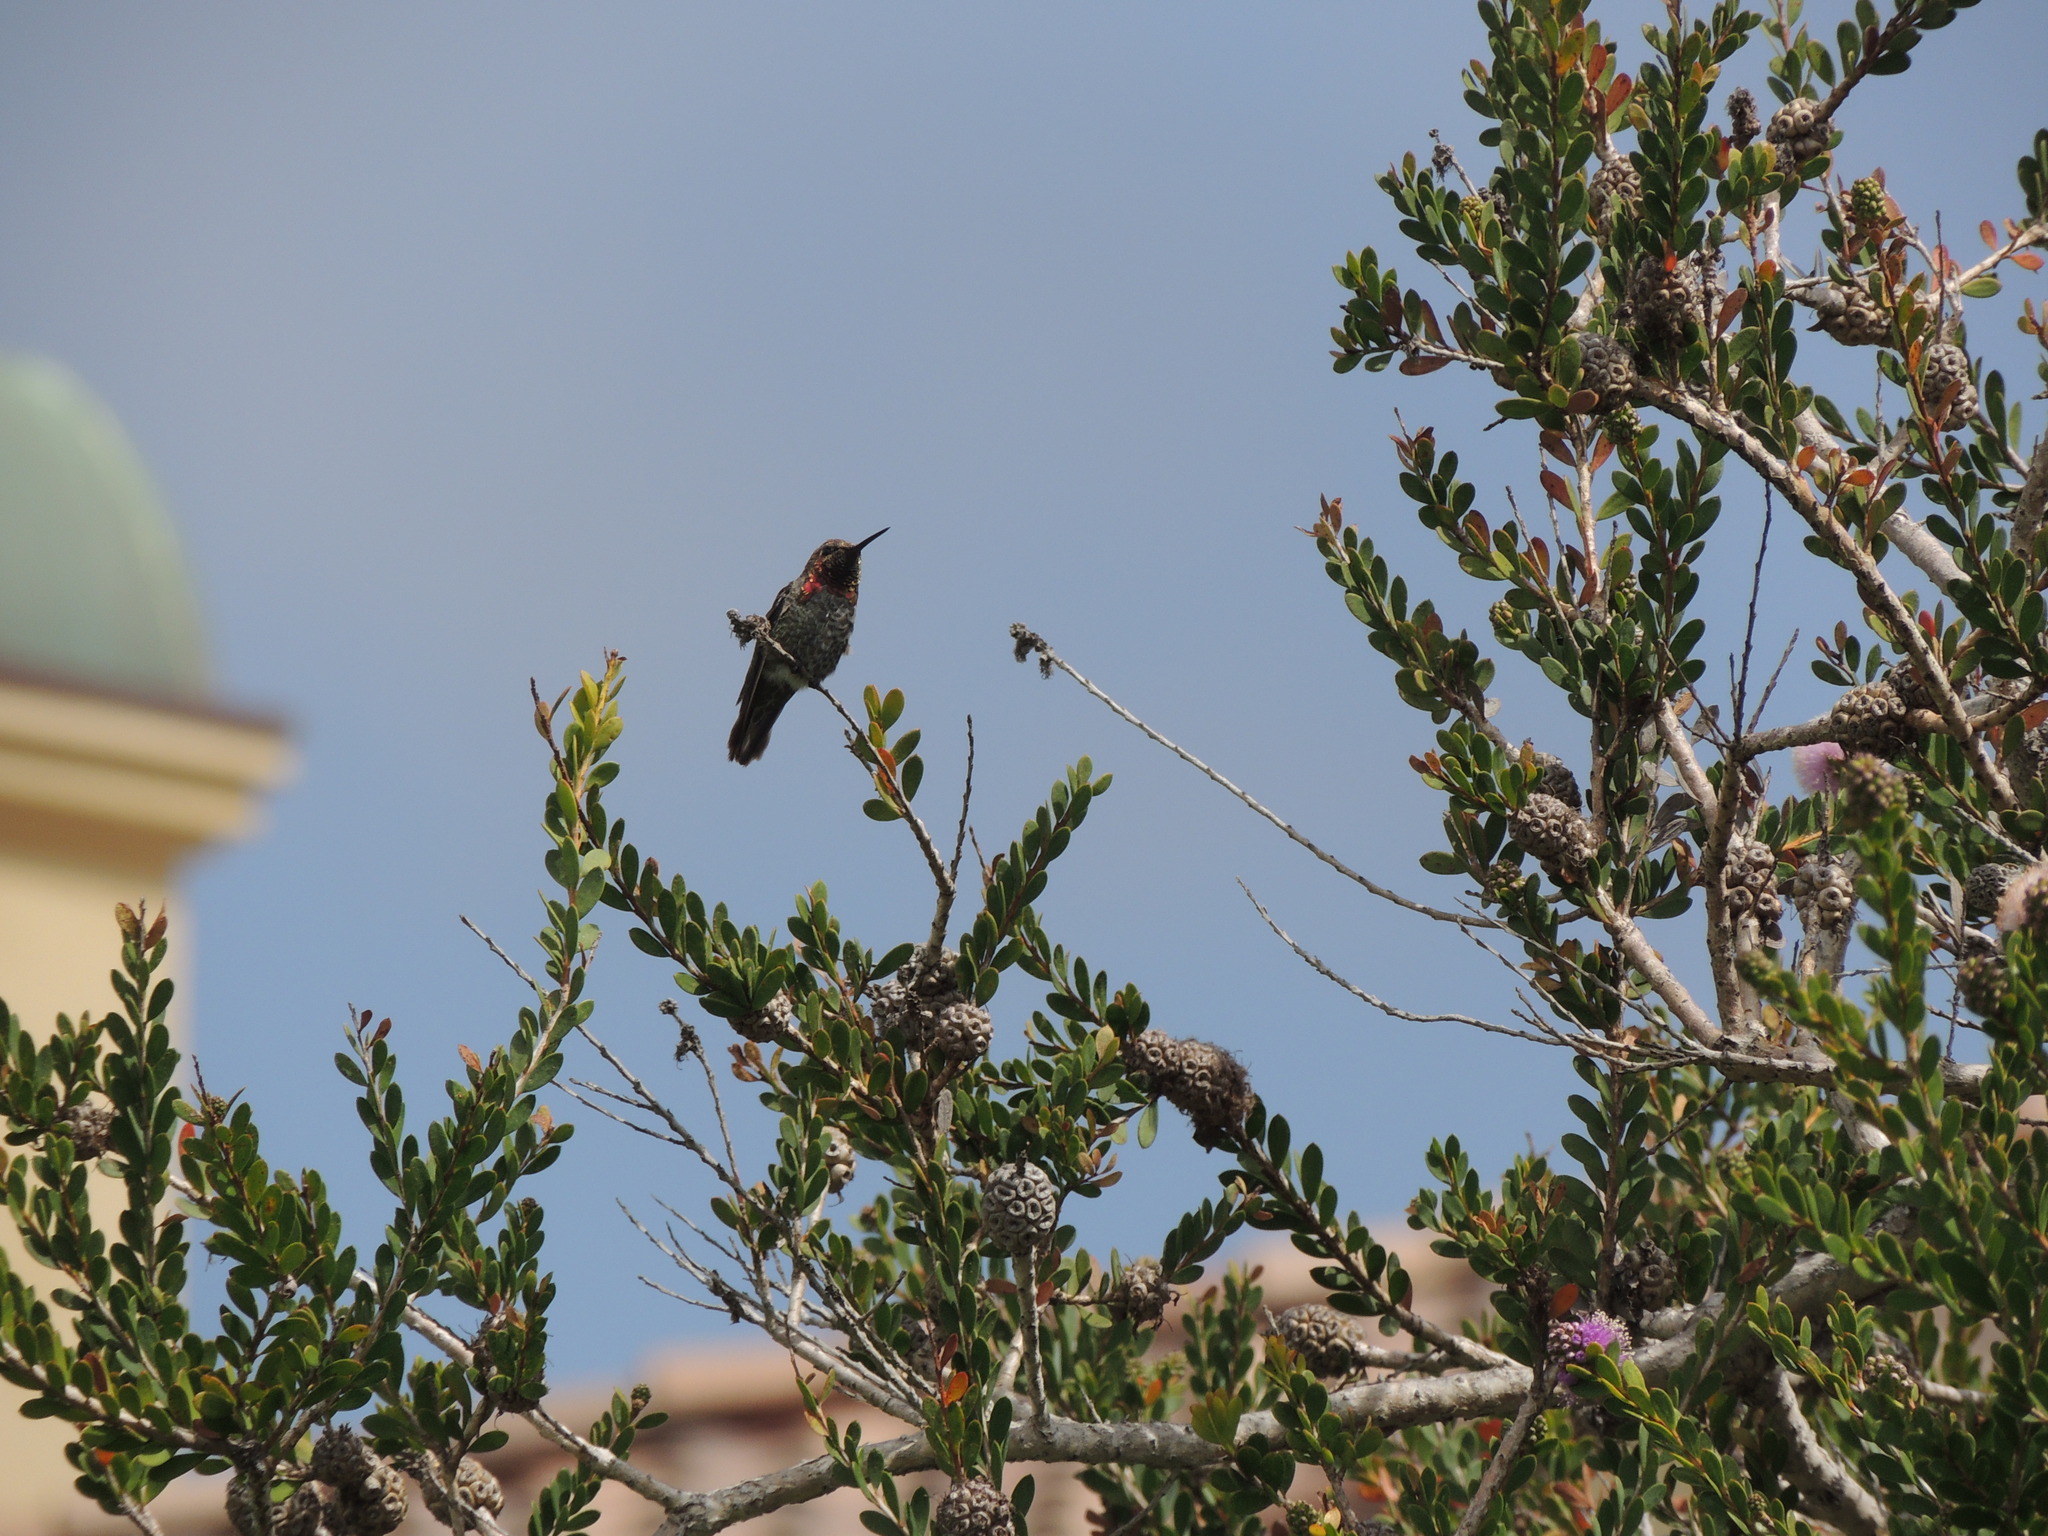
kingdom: Animalia
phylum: Chordata
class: Aves
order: Apodiformes
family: Trochilidae
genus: Calypte
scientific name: Calypte anna
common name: Anna's hummingbird
